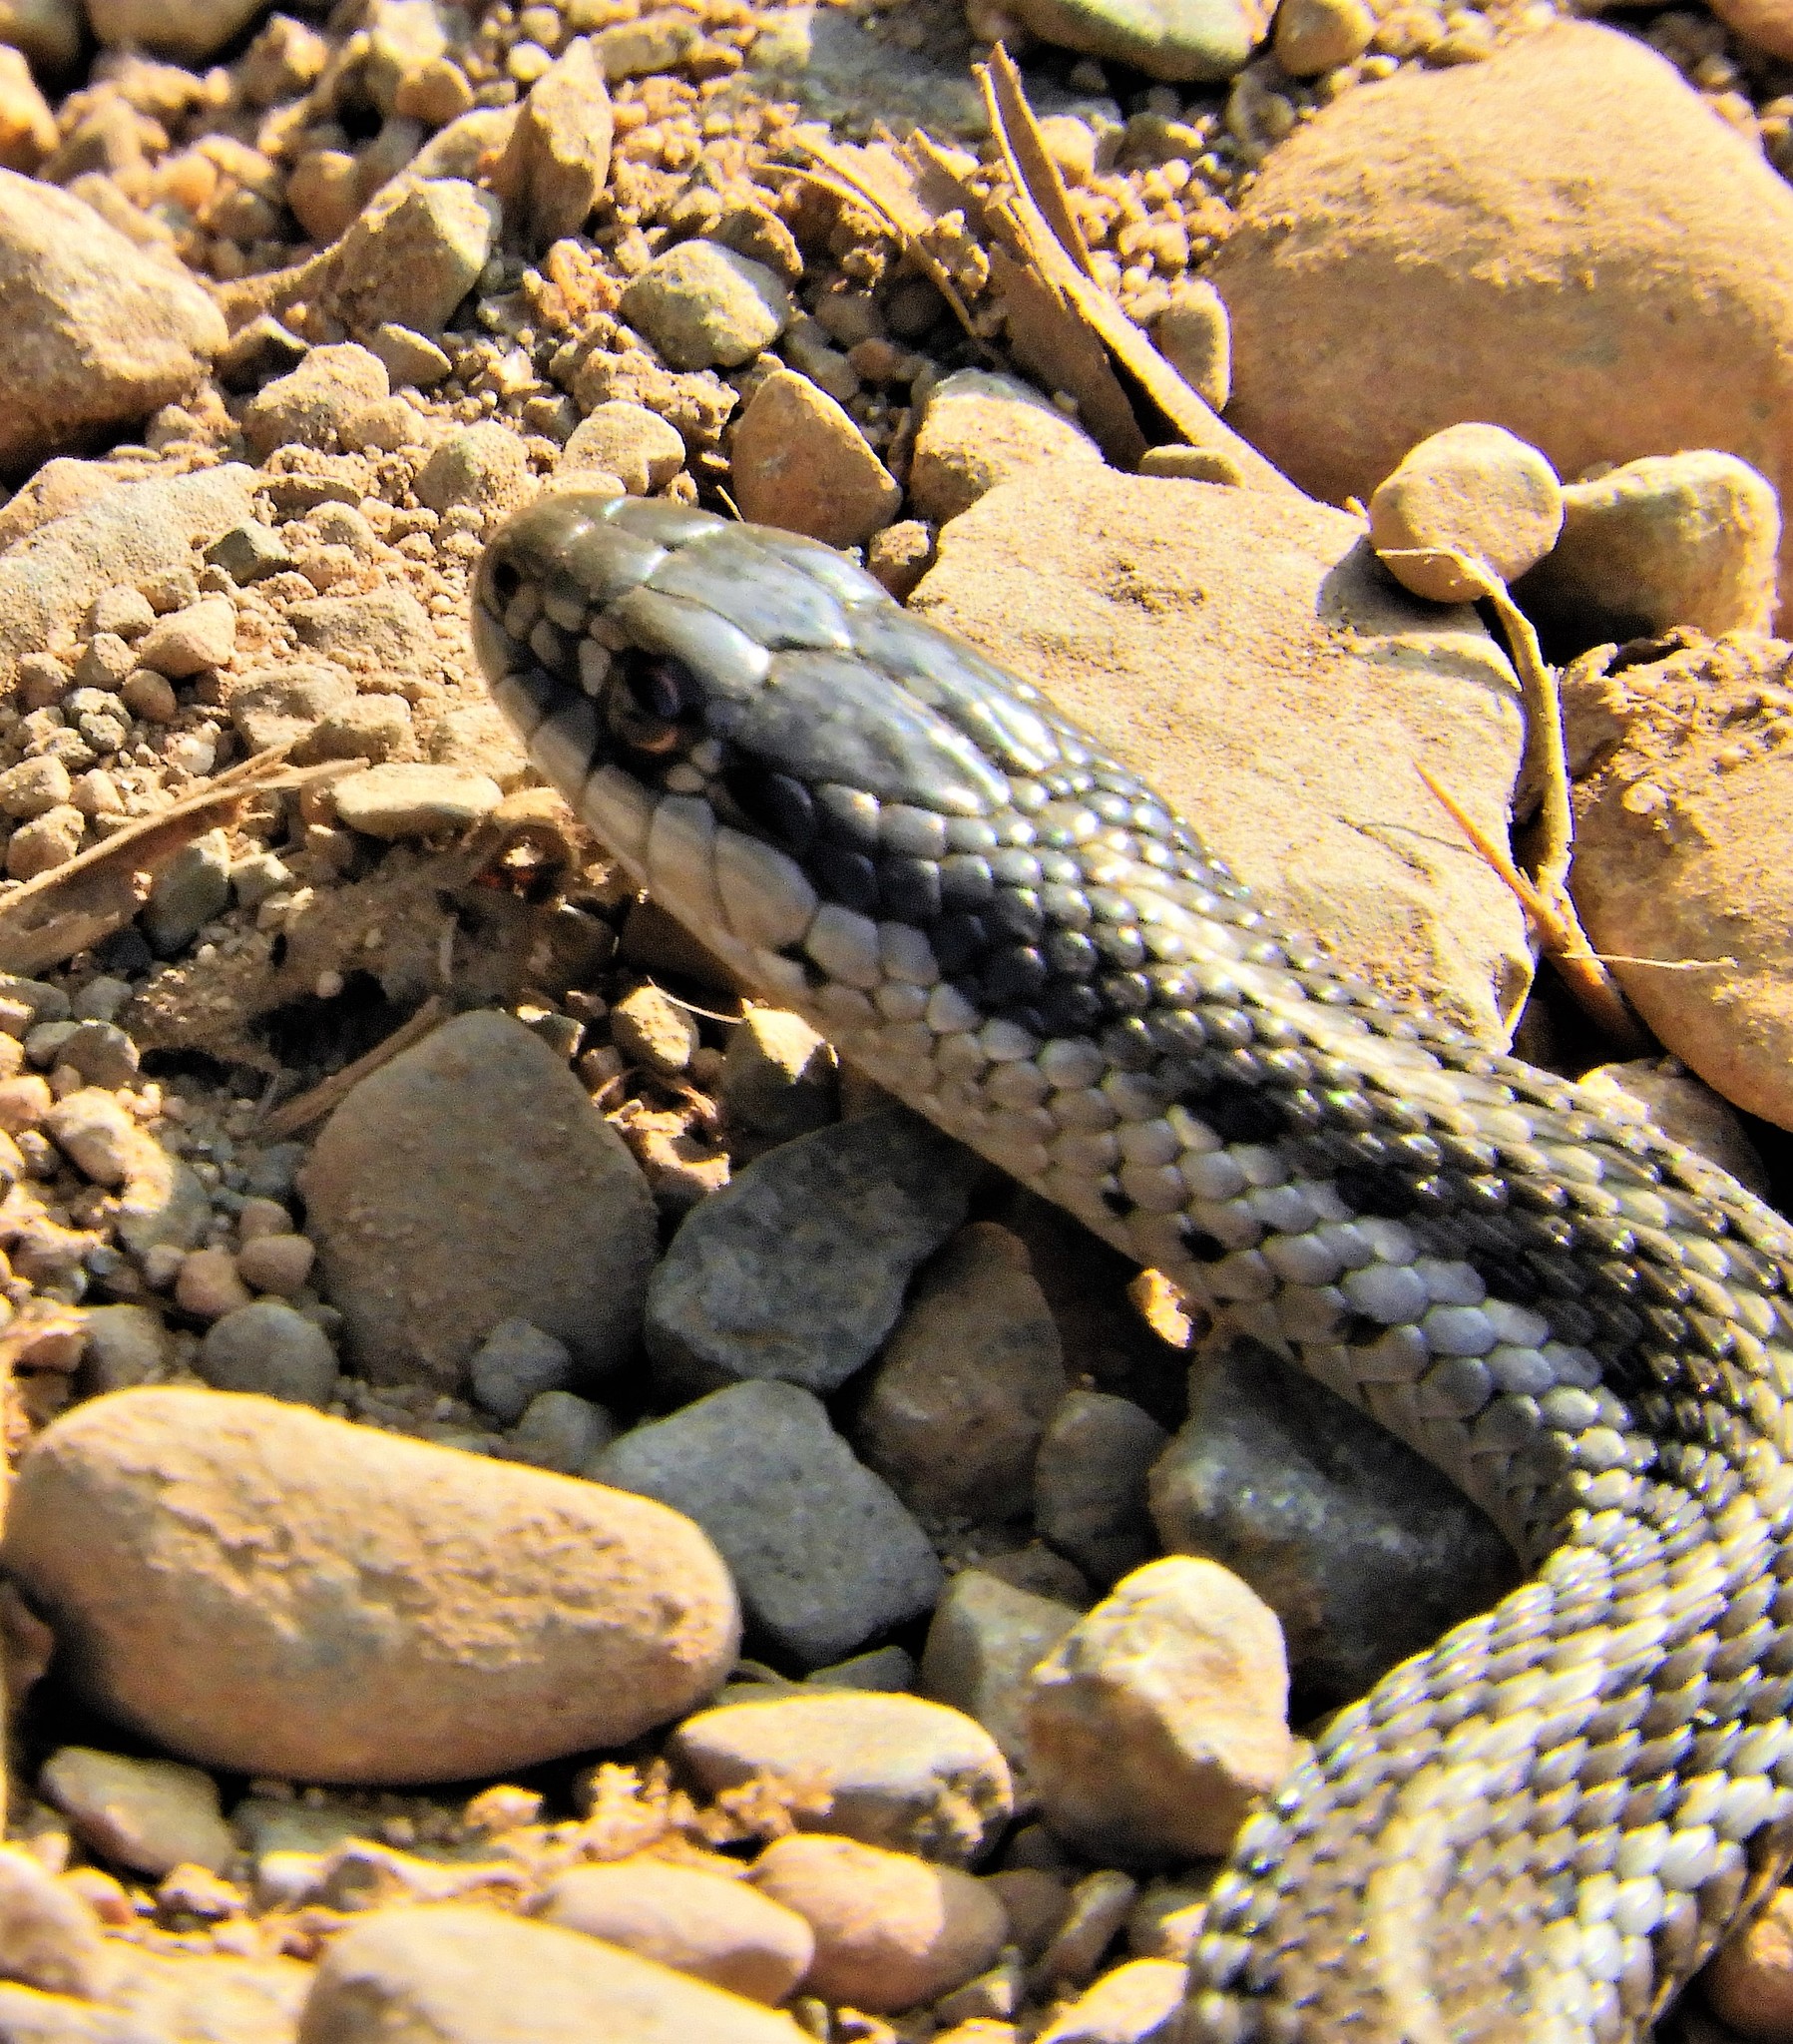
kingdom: Animalia
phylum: Chordata
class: Squamata
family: Colubridae
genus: Thamnophis
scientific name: Thamnophis ordinoides
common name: Northwestern garter snake
